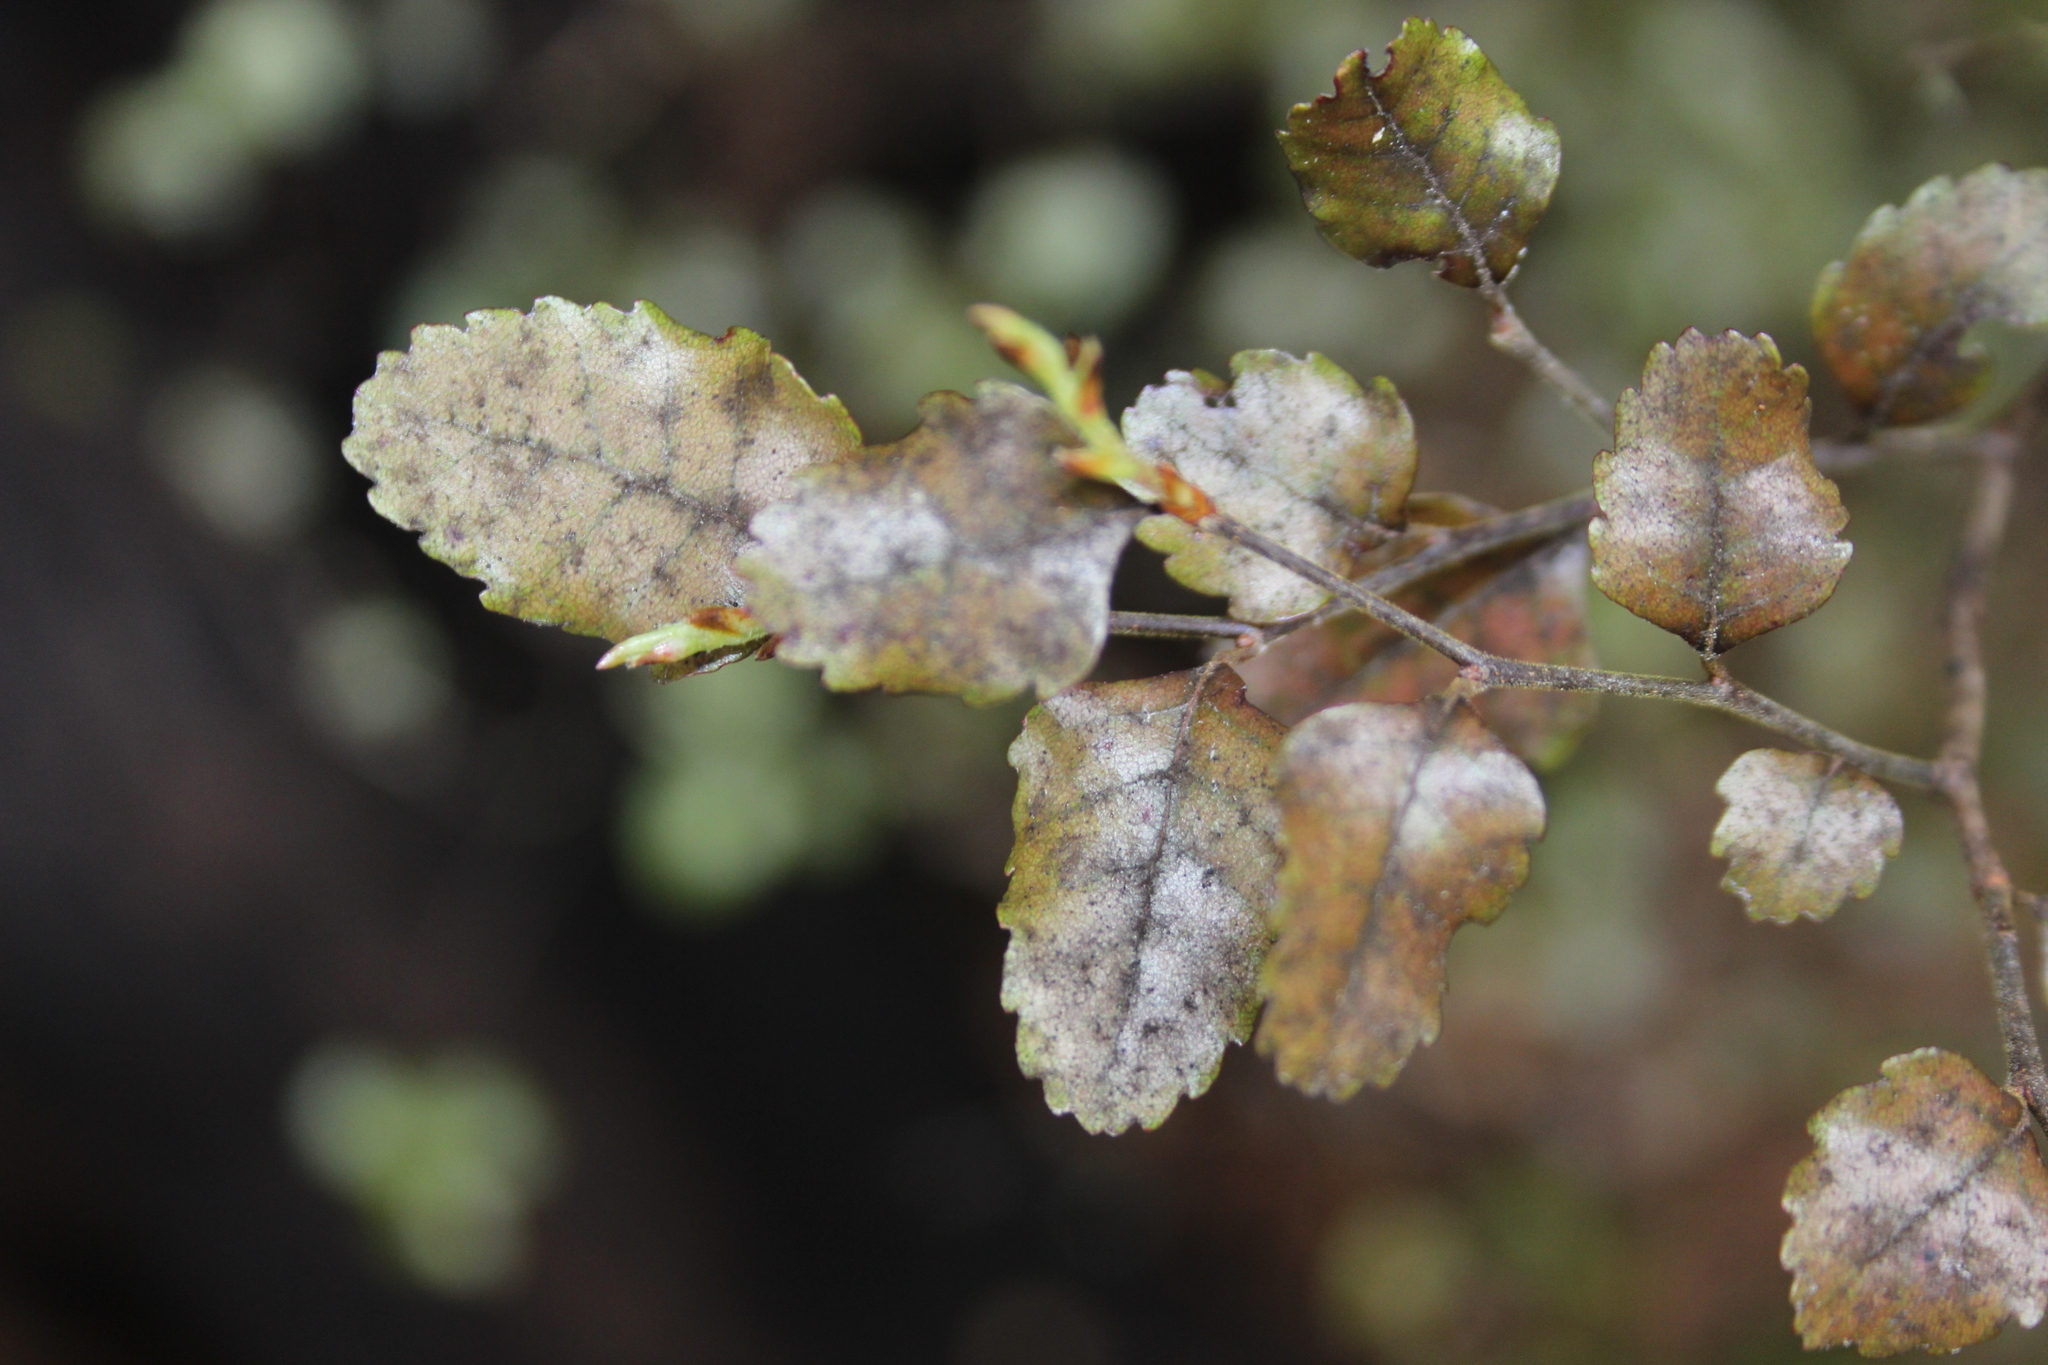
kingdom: Plantae
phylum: Tracheophyta
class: Magnoliopsida
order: Fagales
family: Nothofagaceae
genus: Nothofagus
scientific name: Nothofagus truncata
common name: Hard beech
